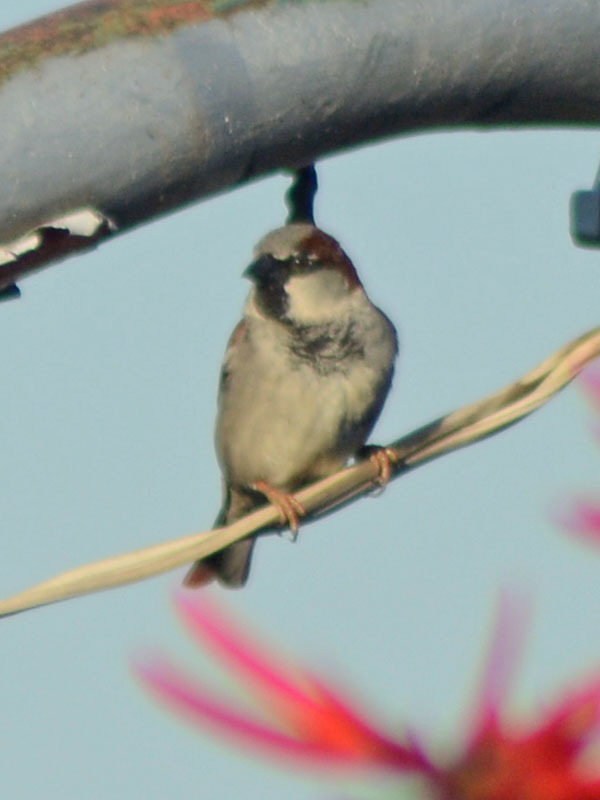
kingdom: Animalia
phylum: Chordata
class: Aves
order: Passeriformes
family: Passeridae
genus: Passer
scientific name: Passer domesticus
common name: House sparrow
